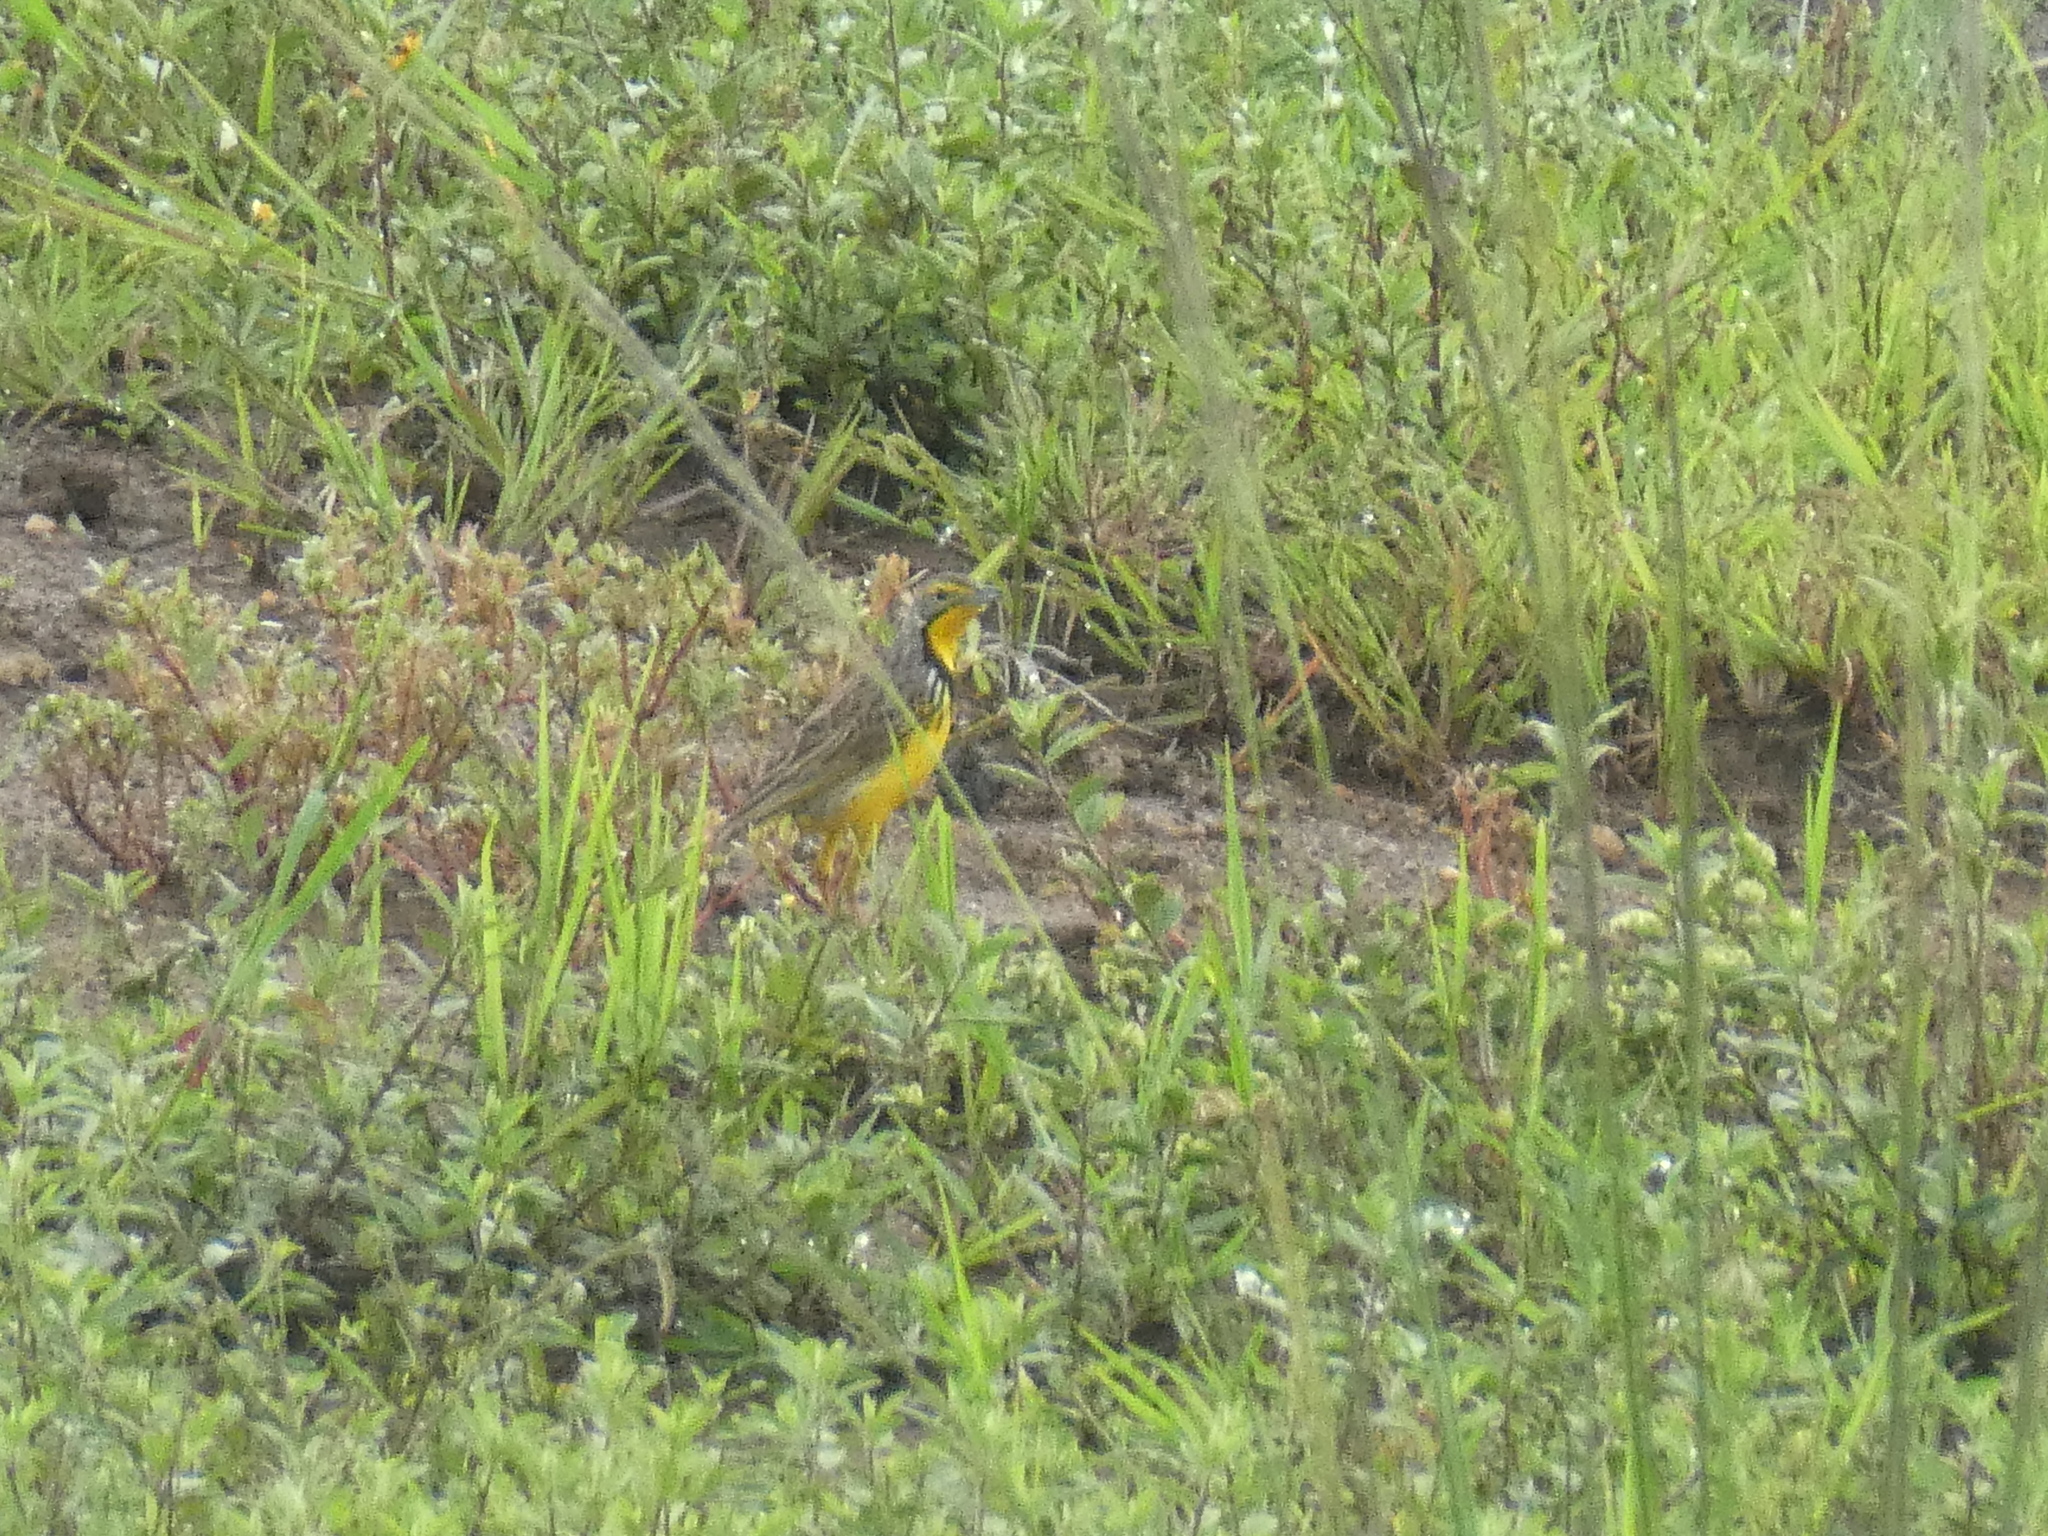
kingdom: Animalia
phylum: Chordata
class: Aves
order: Passeriformes
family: Motacillidae
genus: Macronyx
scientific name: Macronyx croceus
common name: Yellow-throated longclaw
